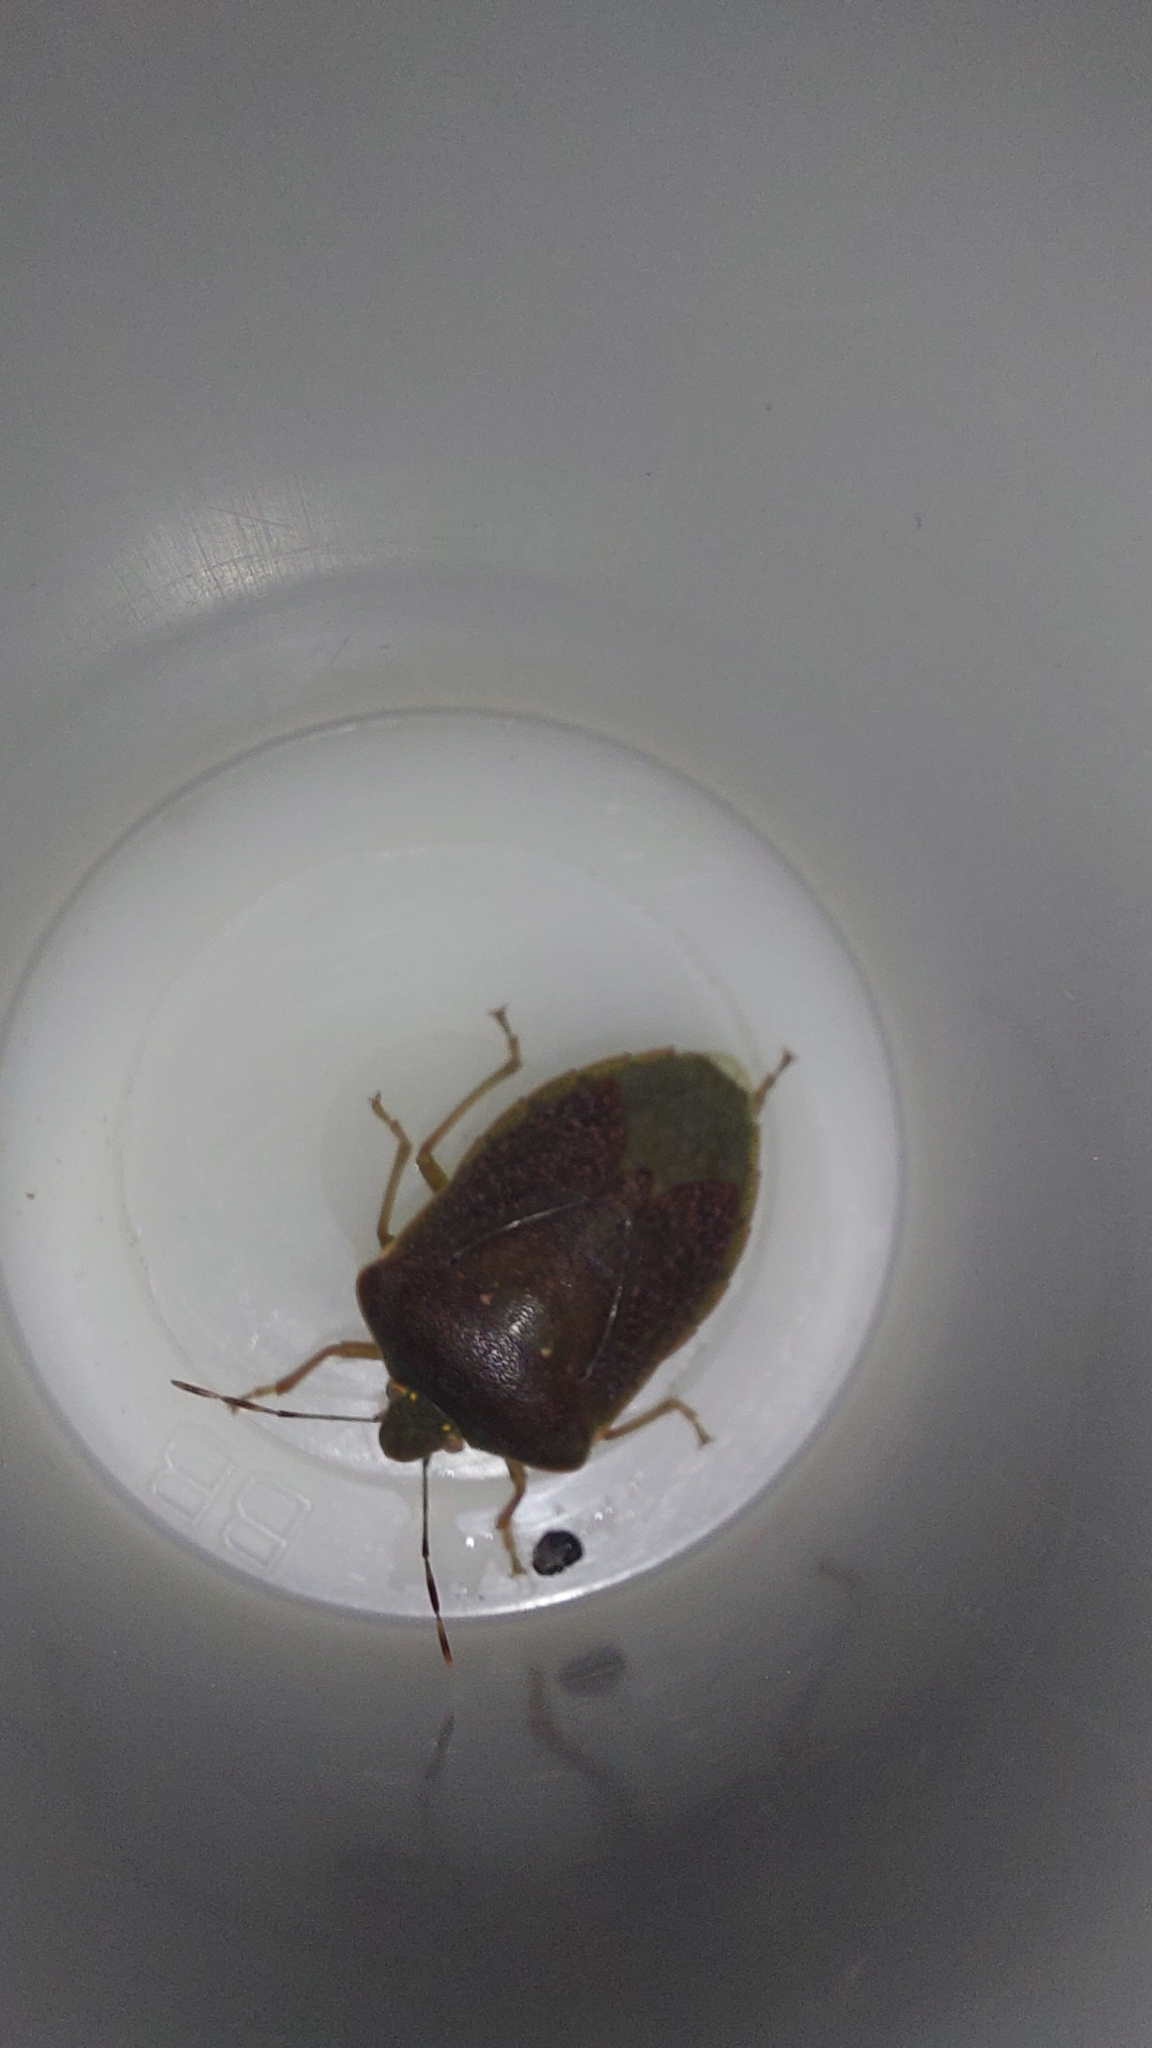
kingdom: Animalia
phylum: Arthropoda
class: Insecta
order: Hemiptera
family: Pentatomidae
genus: Nezara
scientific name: Nezara viridula
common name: Southern green stink bug
